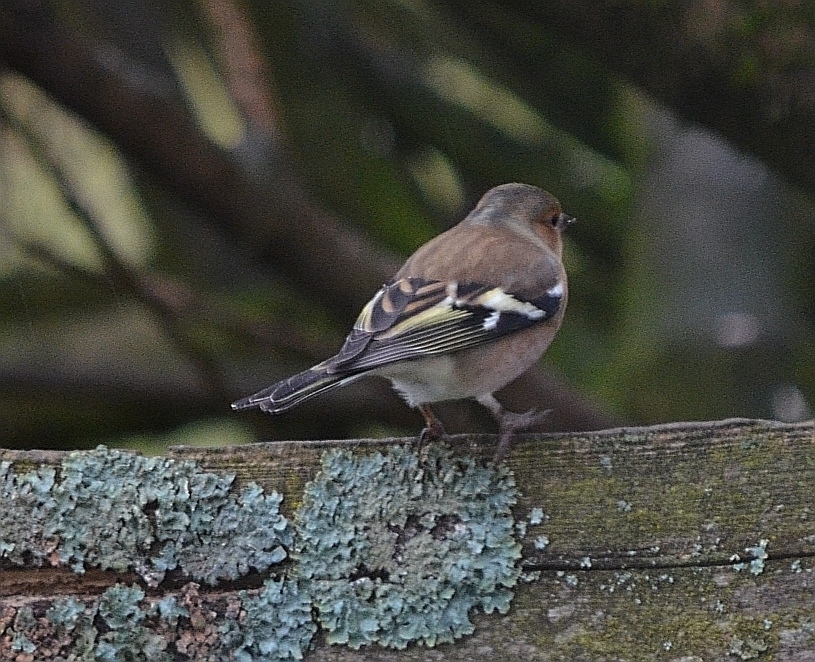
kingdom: Animalia
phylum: Chordata
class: Aves
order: Passeriformes
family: Fringillidae
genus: Fringilla
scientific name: Fringilla coelebs
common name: Common chaffinch
